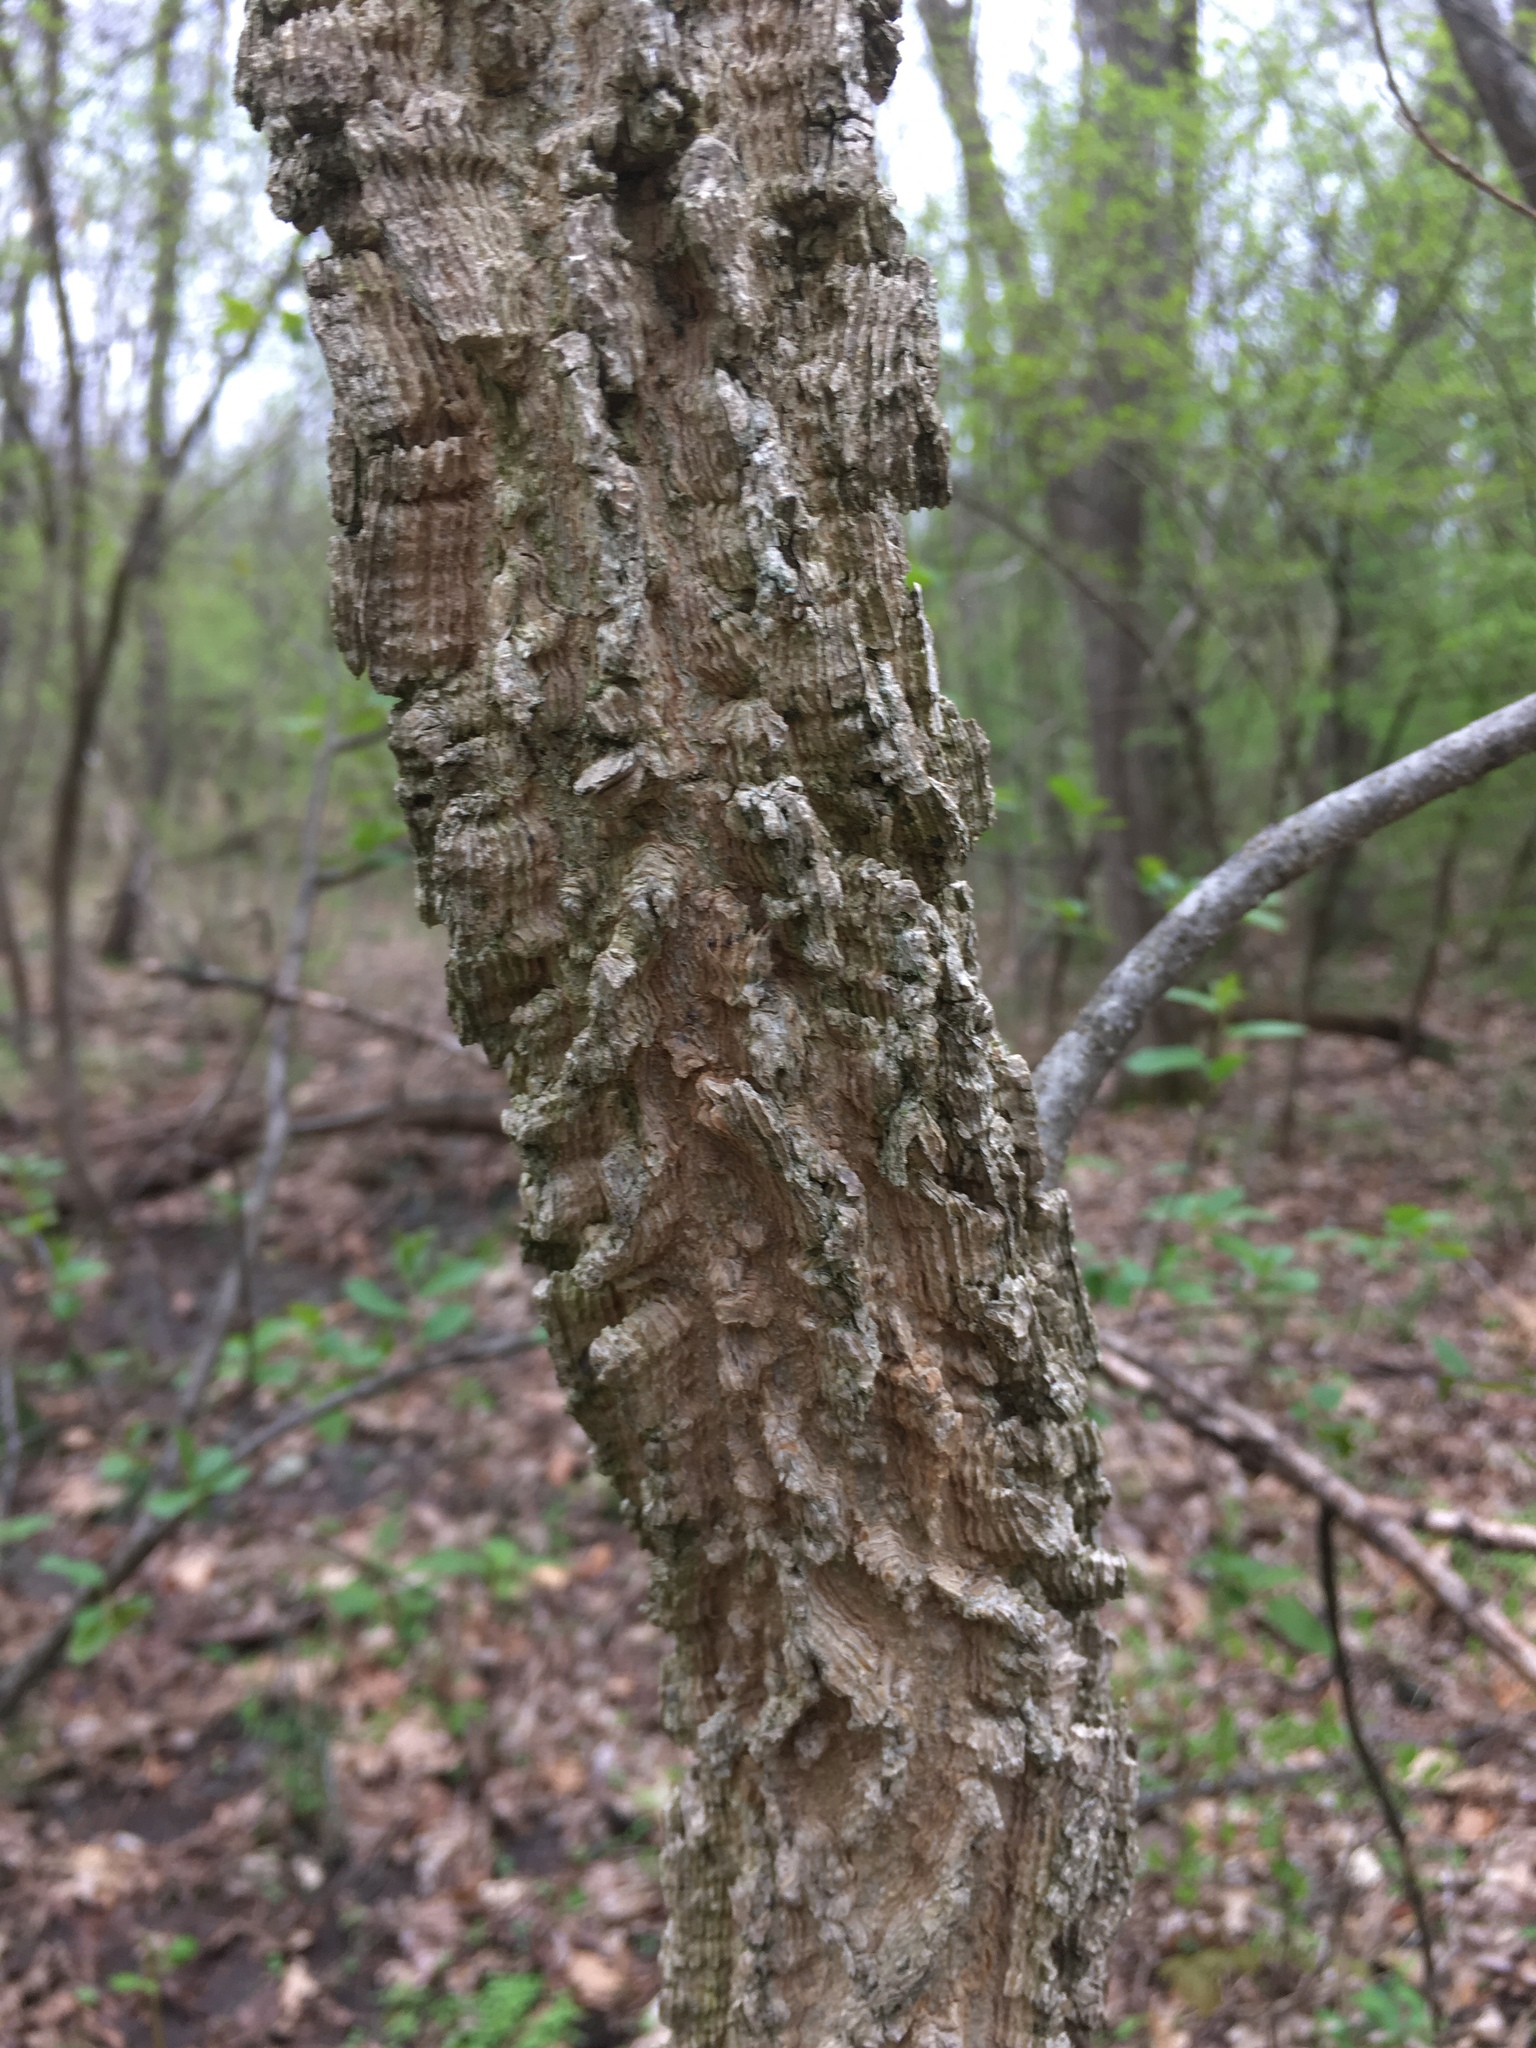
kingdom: Plantae
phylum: Tracheophyta
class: Magnoliopsida
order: Rosales
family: Cannabaceae
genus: Celtis
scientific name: Celtis occidentalis
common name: Common hackberry
